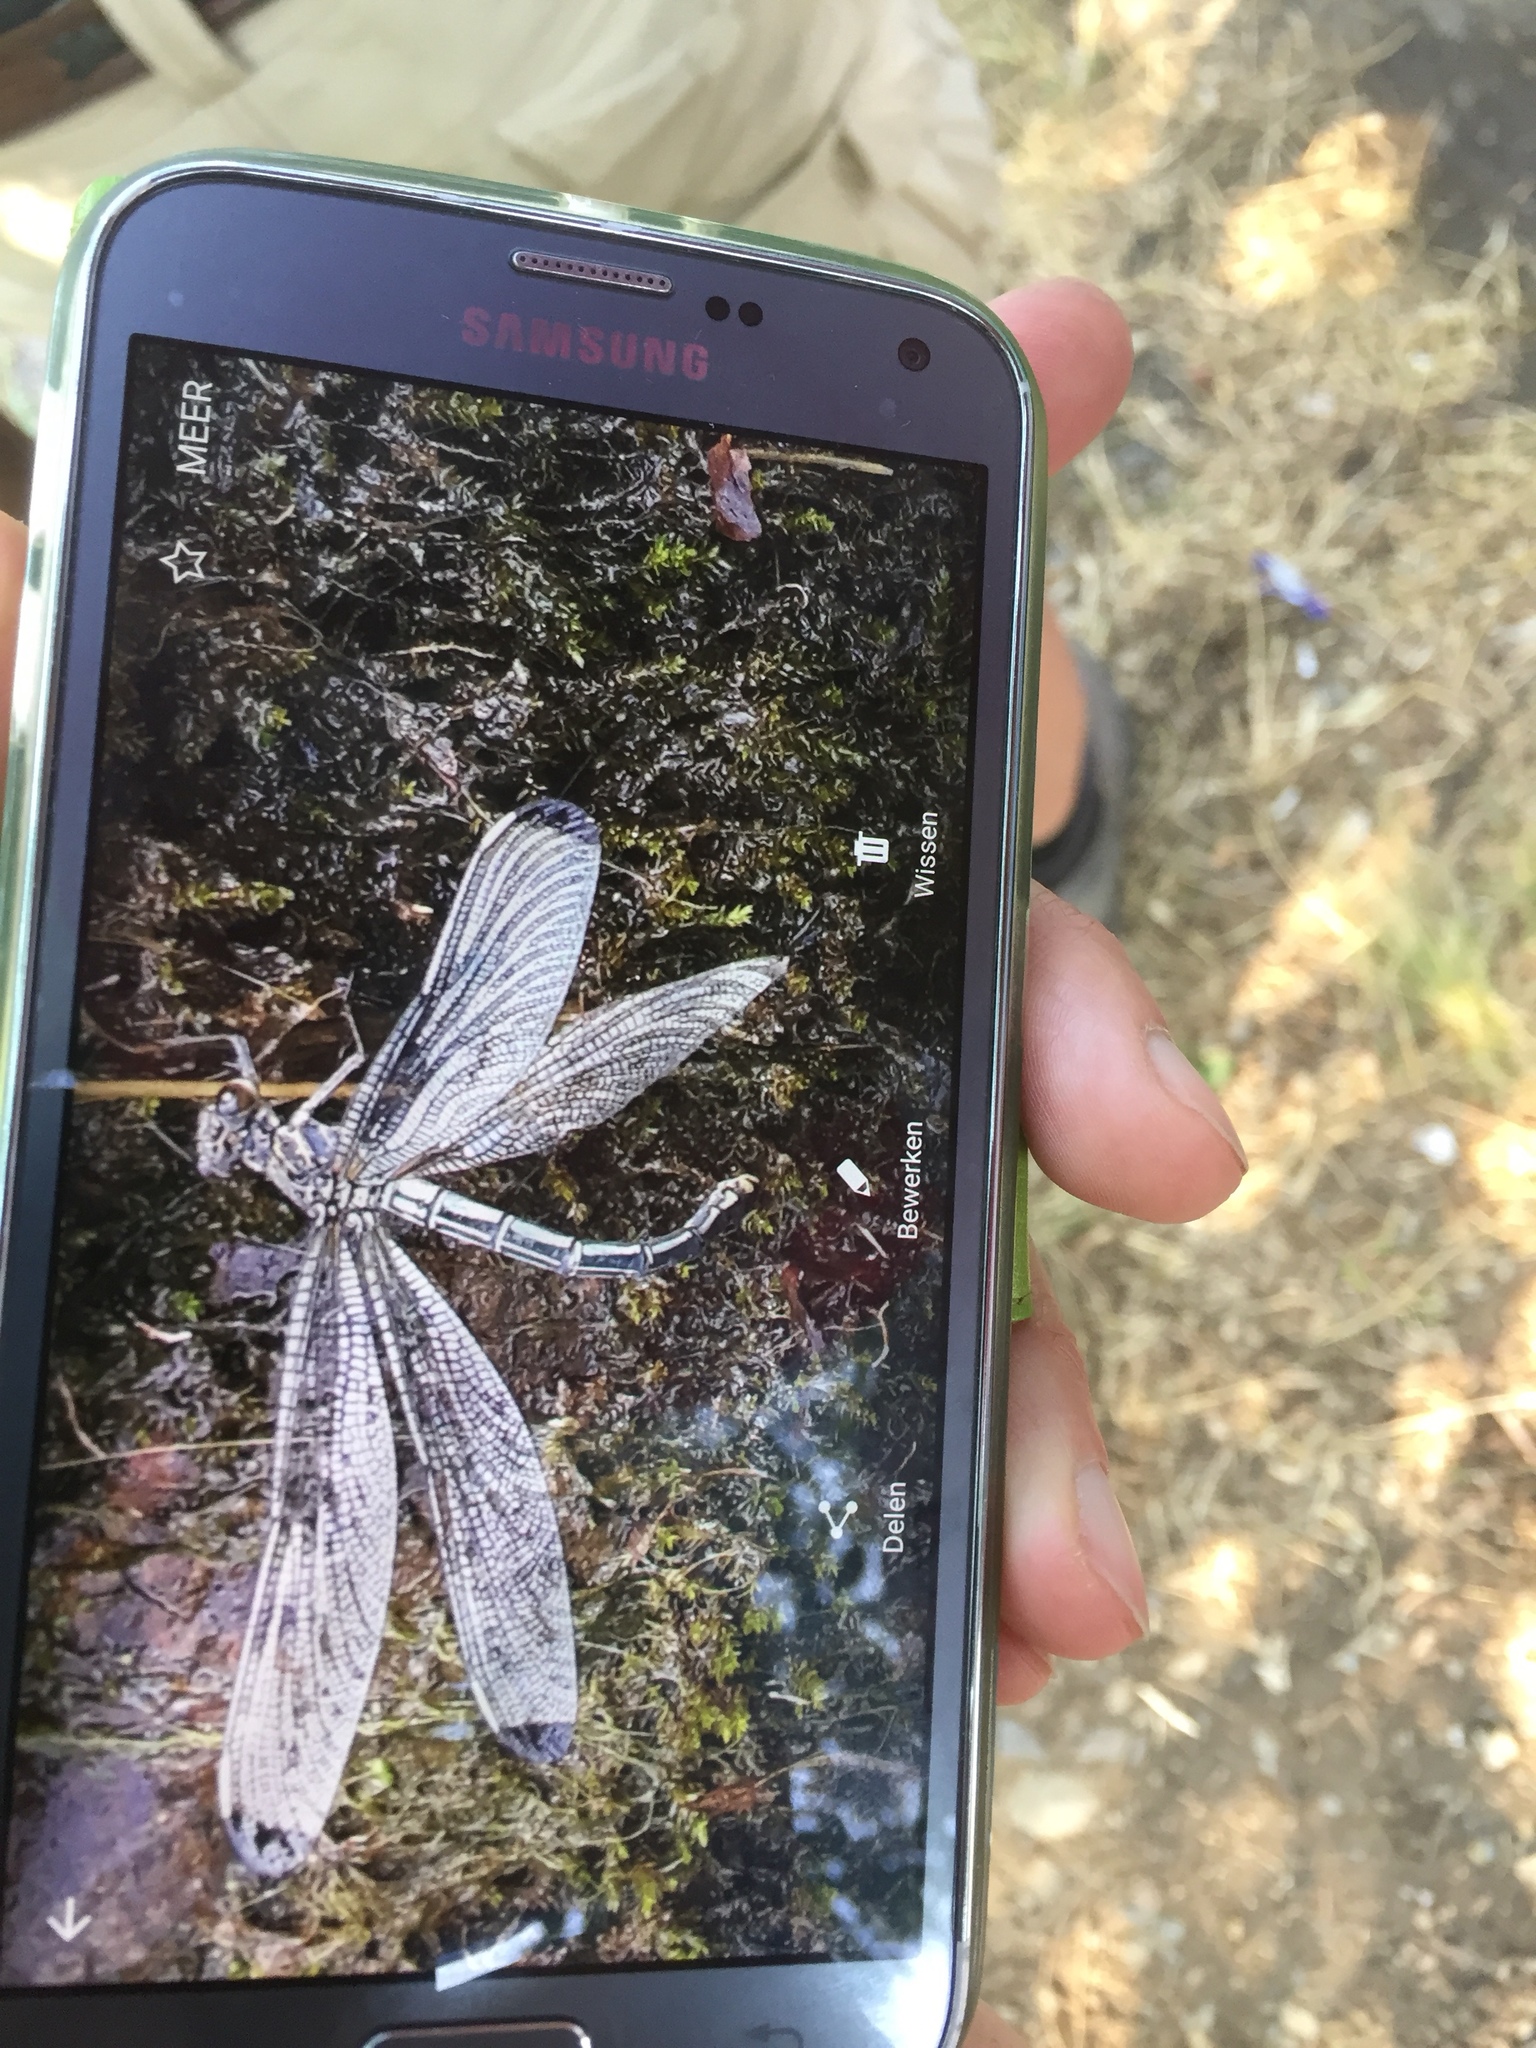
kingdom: Animalia
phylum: Arthropoda
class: Insecta
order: Odonata
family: Euphaeidae
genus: Epallage
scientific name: Epallage fatime
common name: Odalisque
